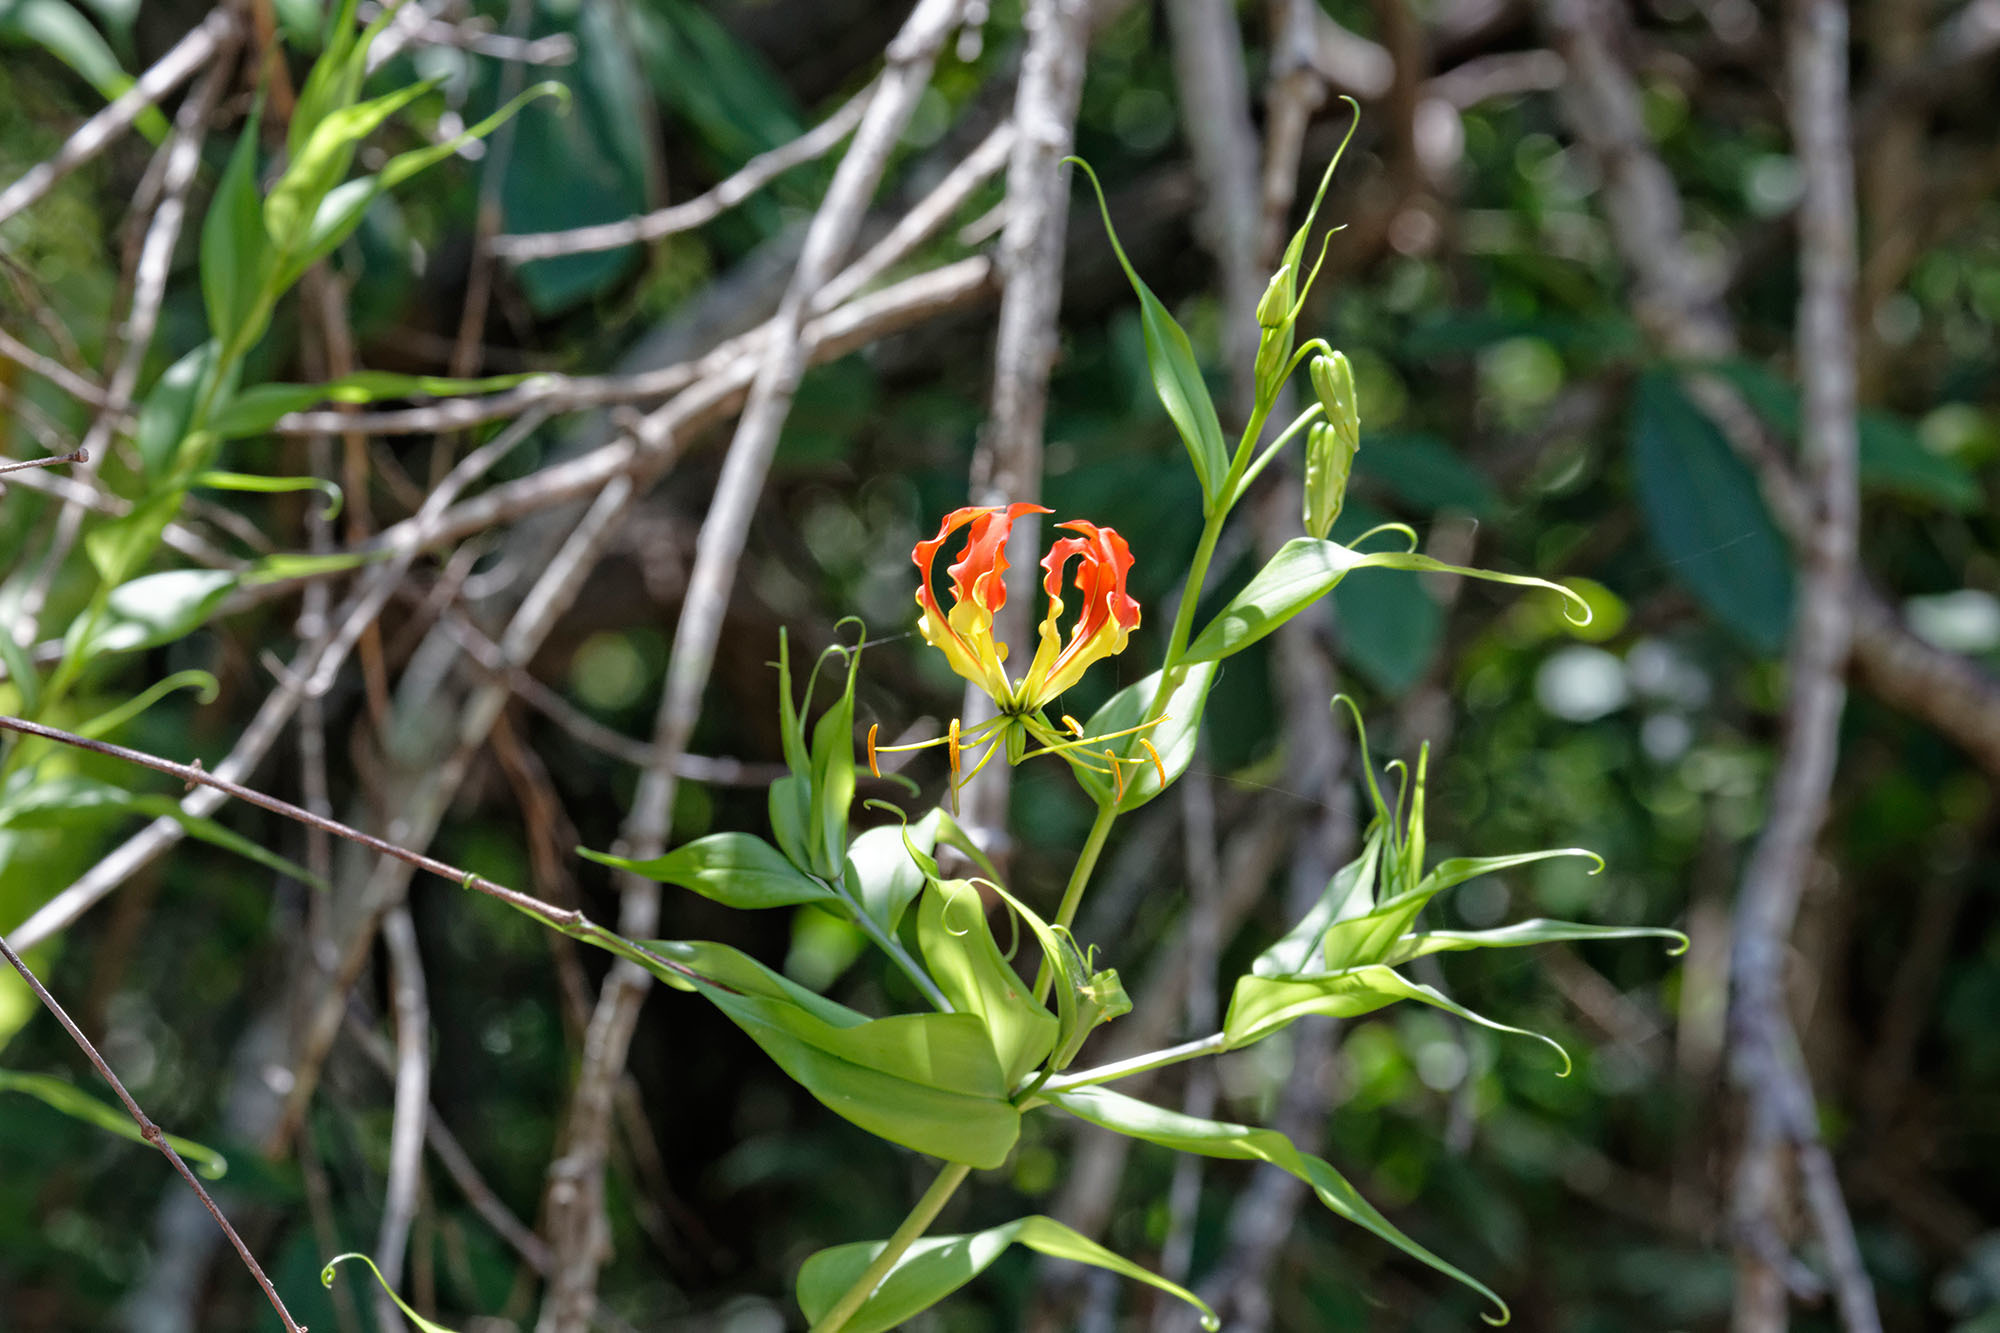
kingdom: Plantae
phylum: Tracheophyta
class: Liliopsida
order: Liliales
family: Colchicaceae
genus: Gloriosa
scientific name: Gloriosa superba
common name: Flame lily
